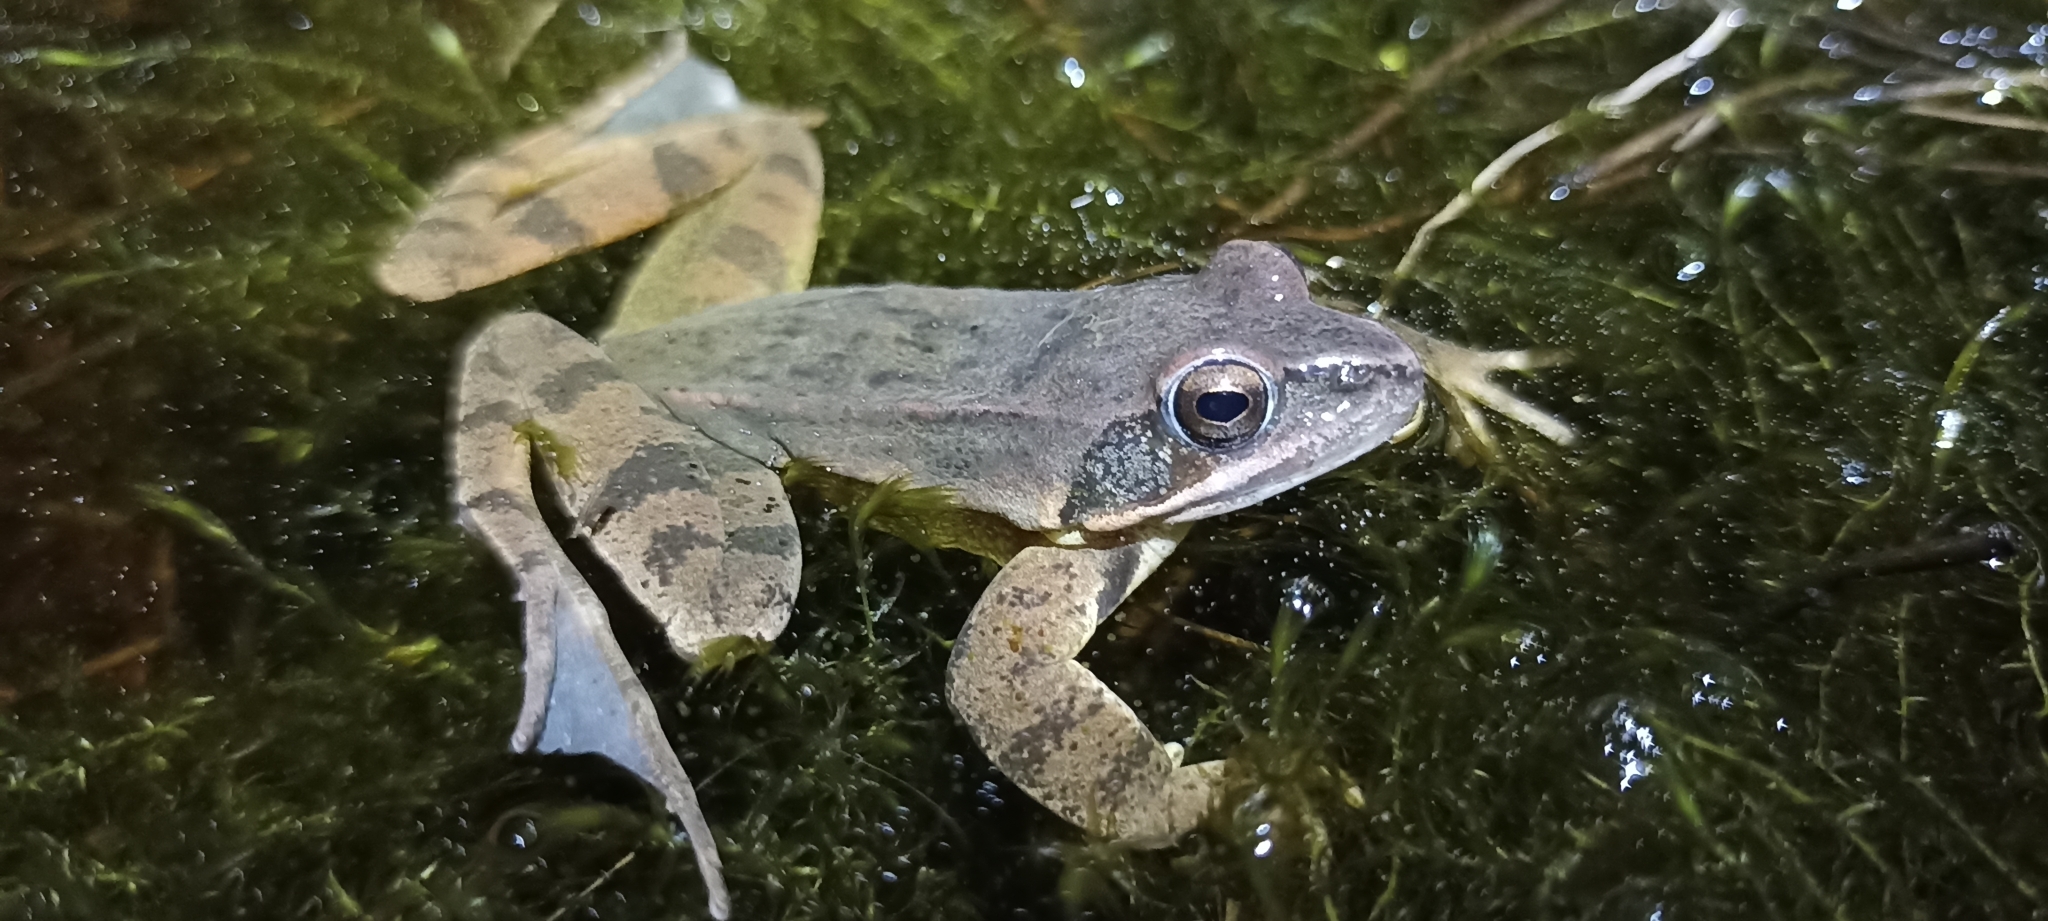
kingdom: Animalia
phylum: Chordata
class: Amphibia
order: Anura
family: Ranidae
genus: Rana
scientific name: Rana dalmatina
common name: Agile frog
